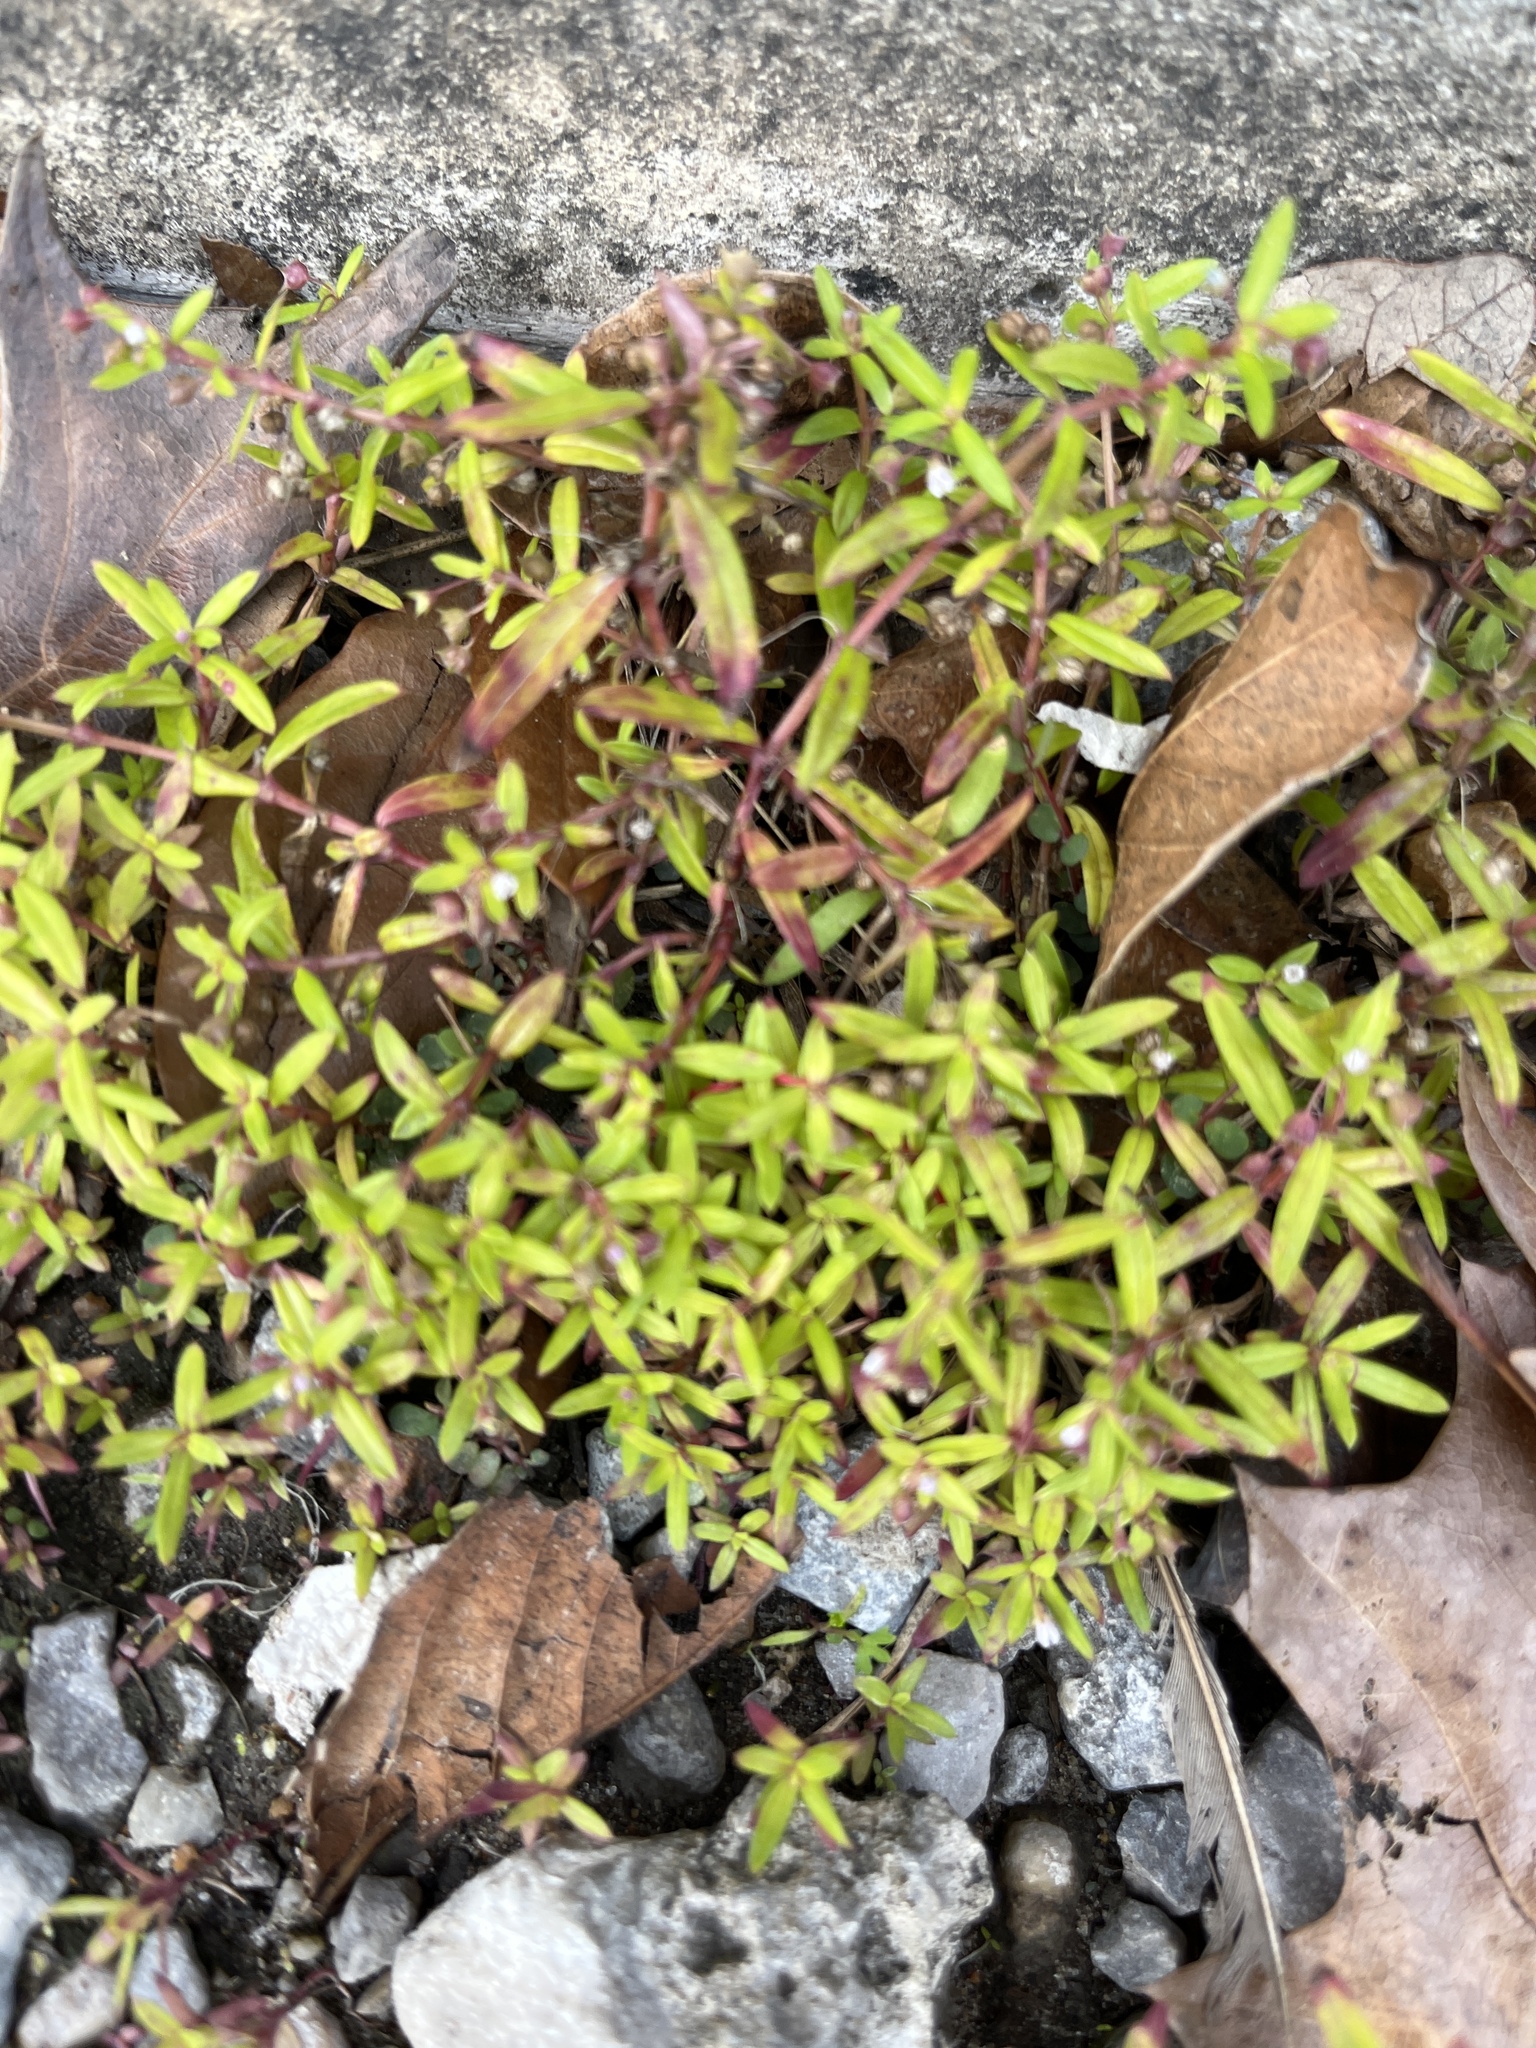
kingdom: Plantae
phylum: Tracheophyta
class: Magnoliopsida
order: Gentianales
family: Rubiaceae
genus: Oldenlandia
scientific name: Oldenlandia corymbosa
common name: Flat-top mille graines
